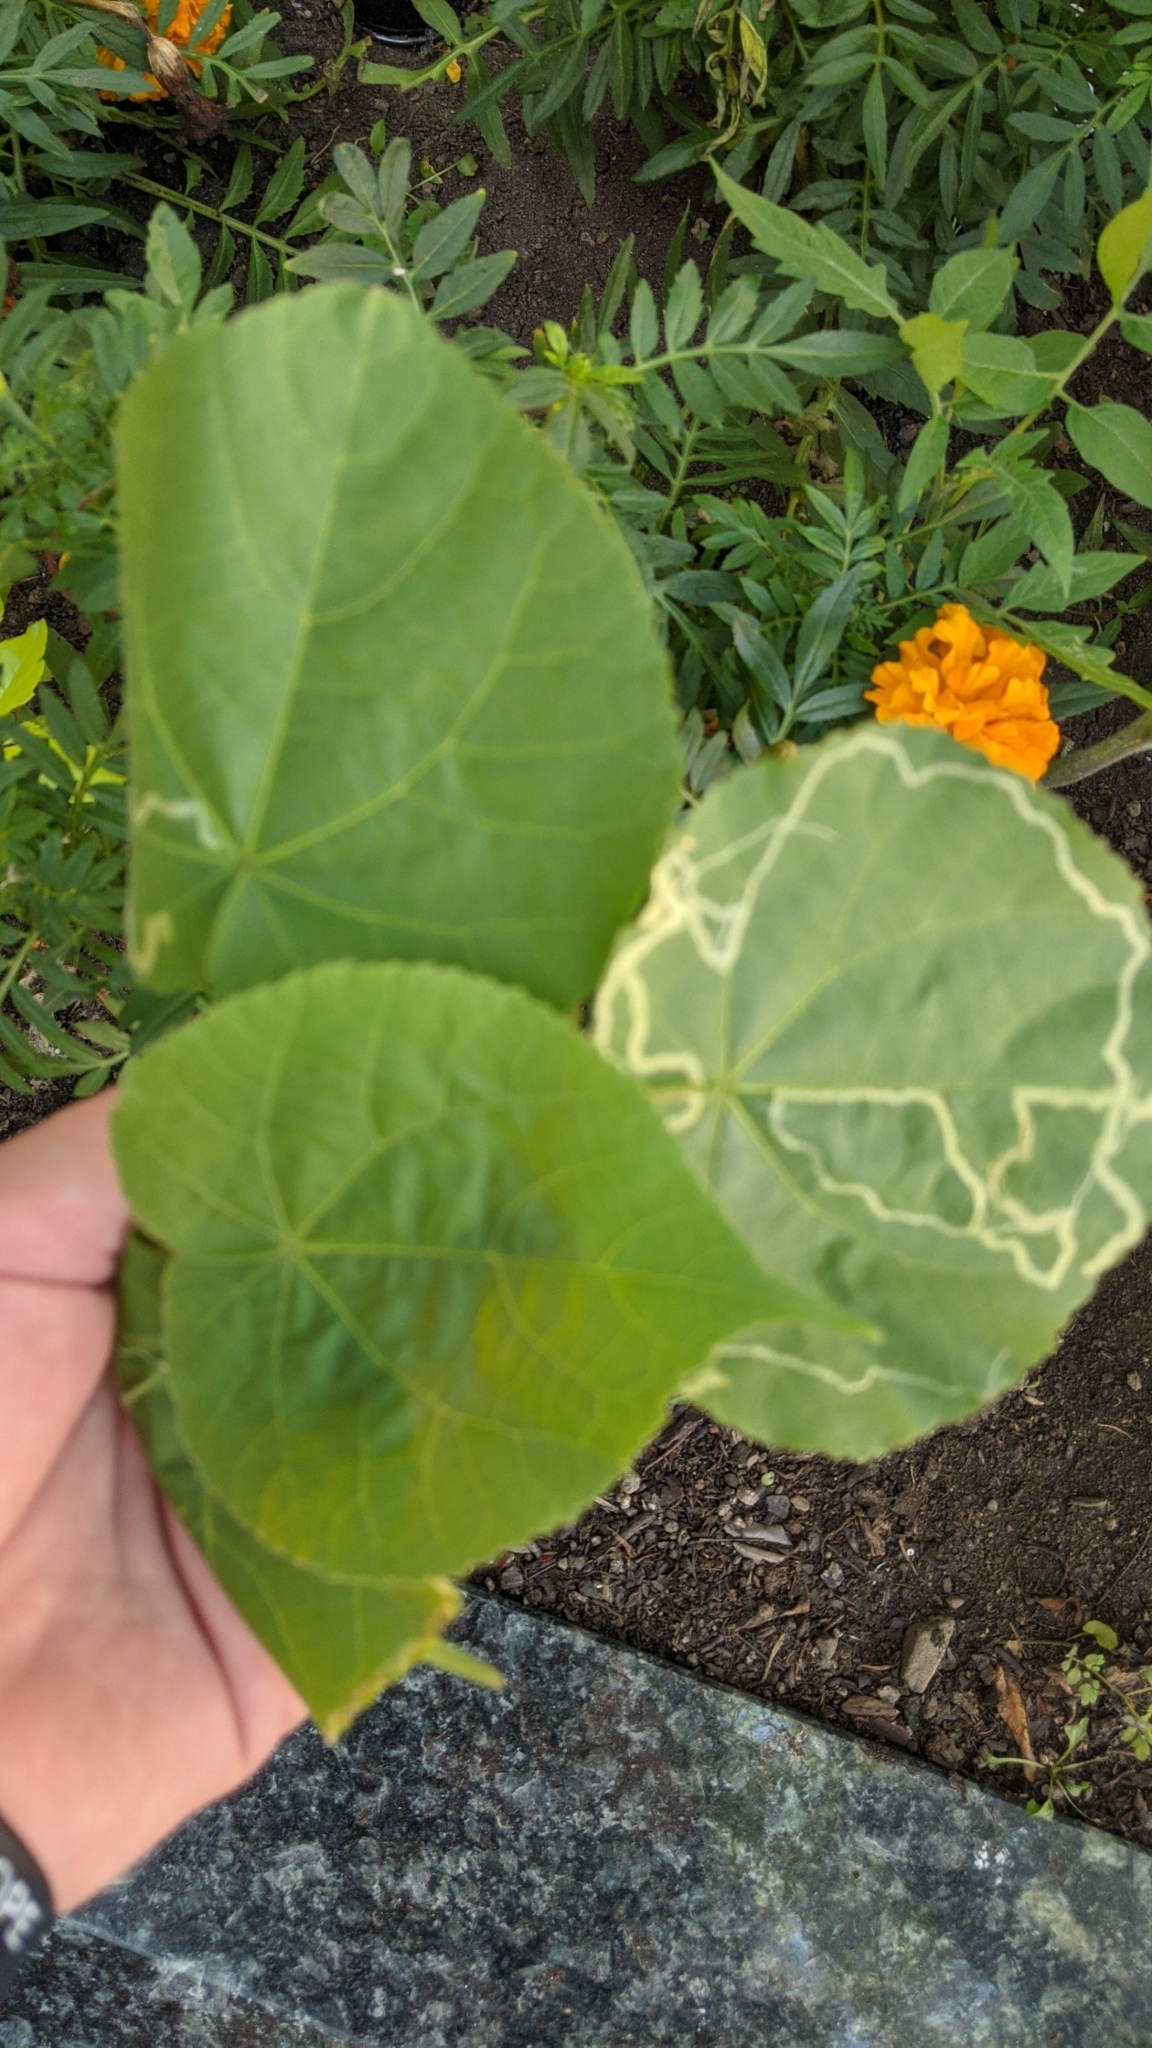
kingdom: Animalia
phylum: Arthropoda
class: Insecta
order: Diptera
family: Agromyzidae
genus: Calycomyza
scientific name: Calycomyza malvae
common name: Mallow leaf miner
